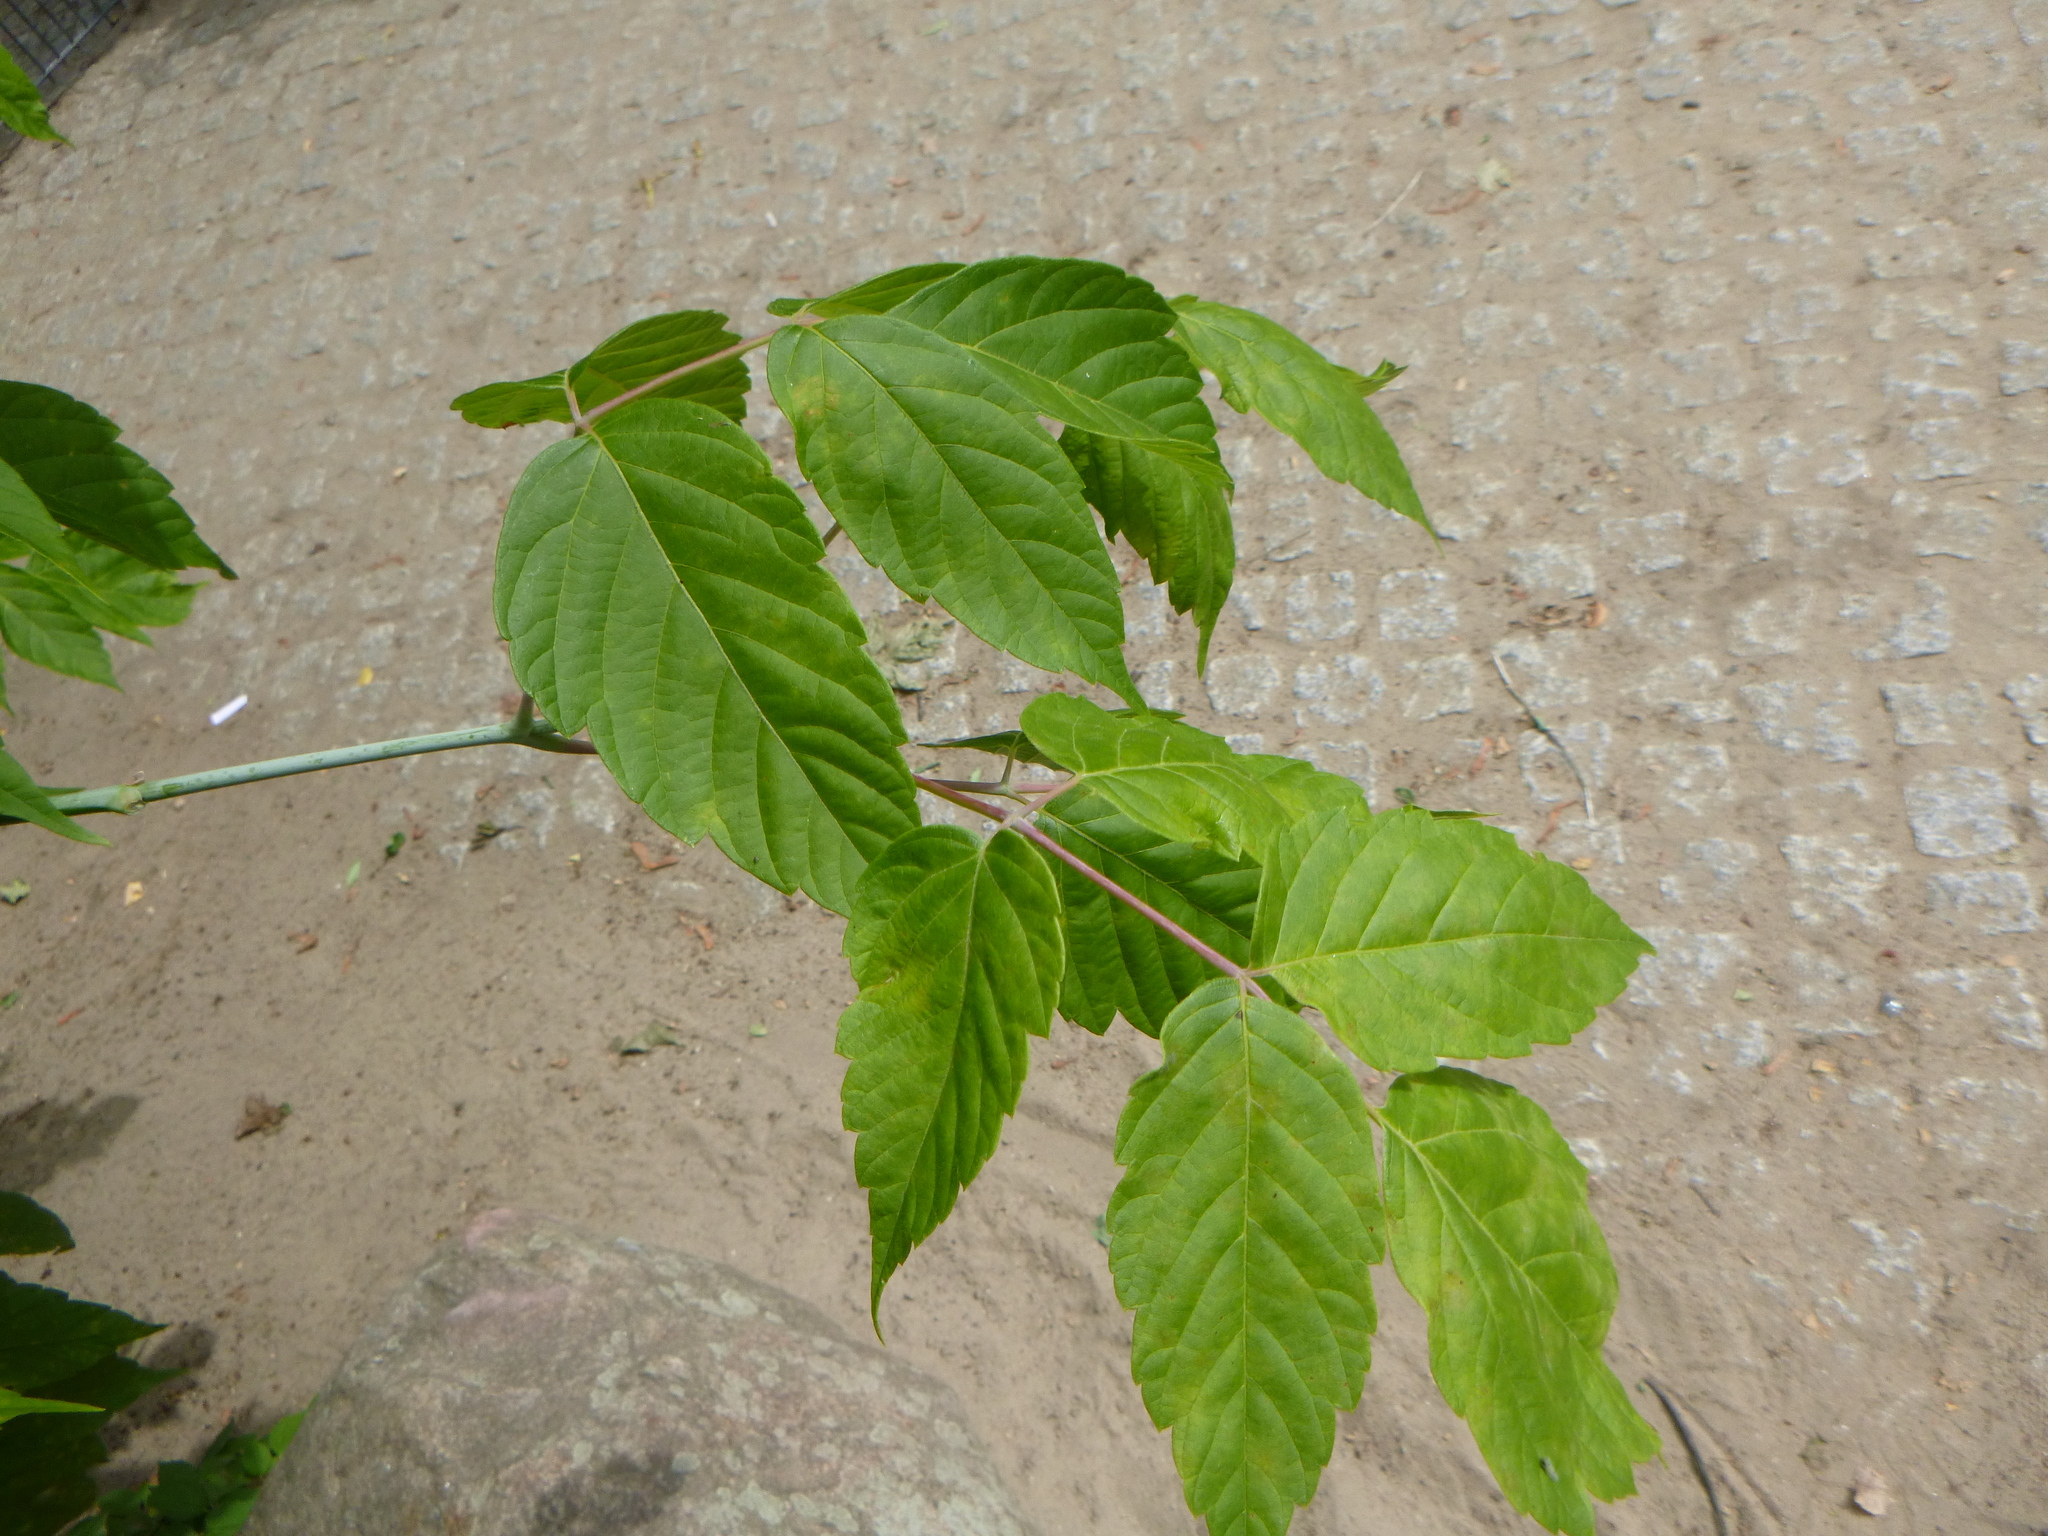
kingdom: Plantae
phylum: Tracheophyta
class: Magnoliopsida
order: Sapindales
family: Sapindaceae
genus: Acer
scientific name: Acer negundo
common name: Ashleaf maple
